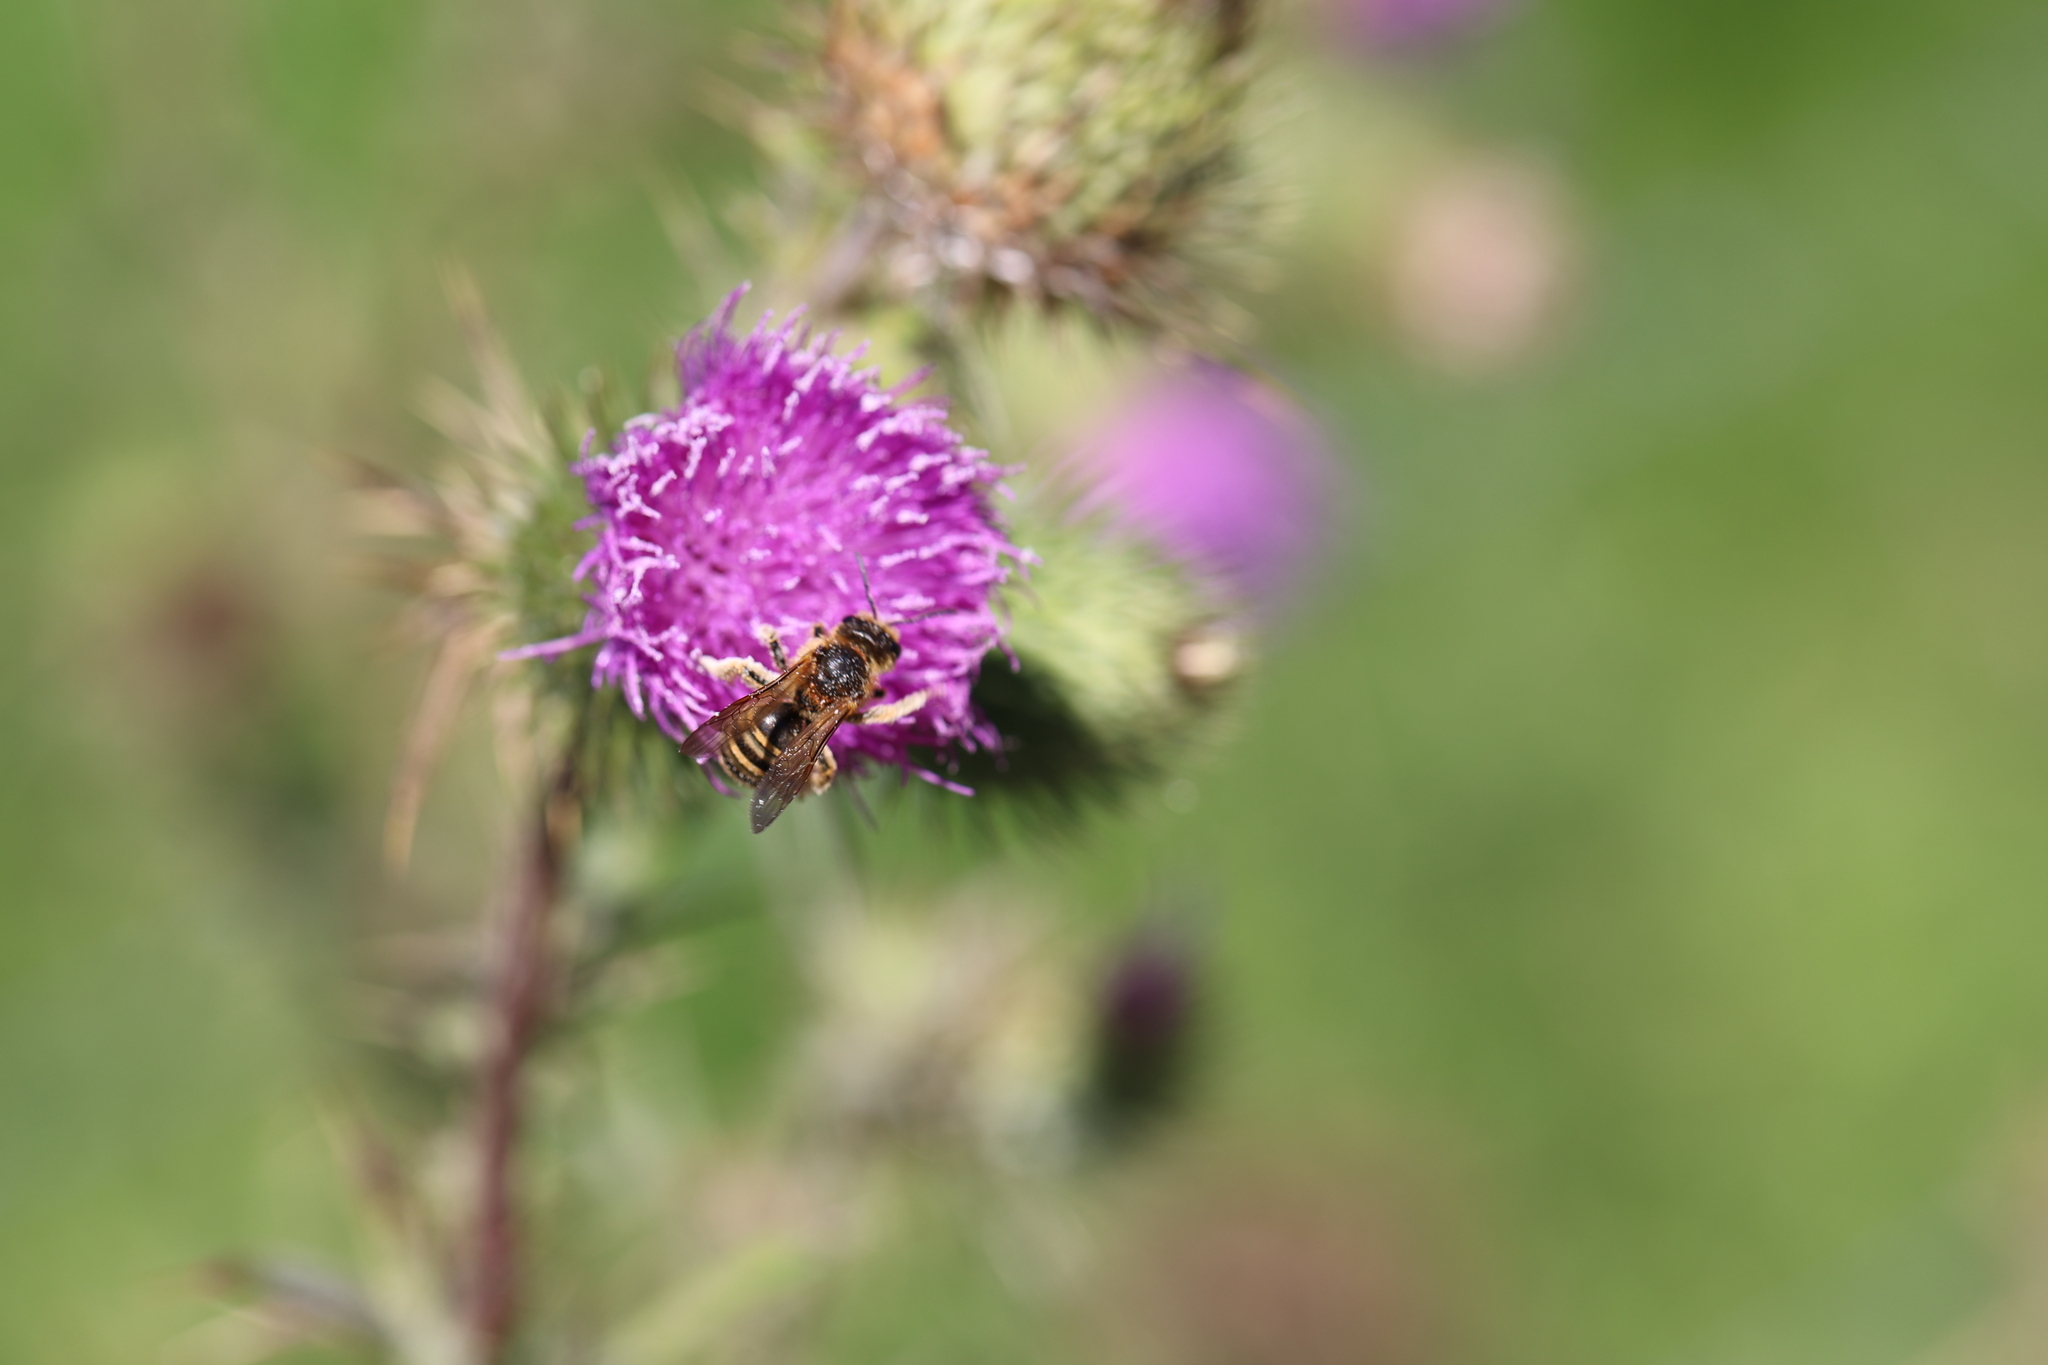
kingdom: Animalia
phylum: Arthropoda
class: Insecta
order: Hymenoptera
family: Halictidae
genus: Halictus
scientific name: Halictus scabiosae
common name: Great banded furrow bee
